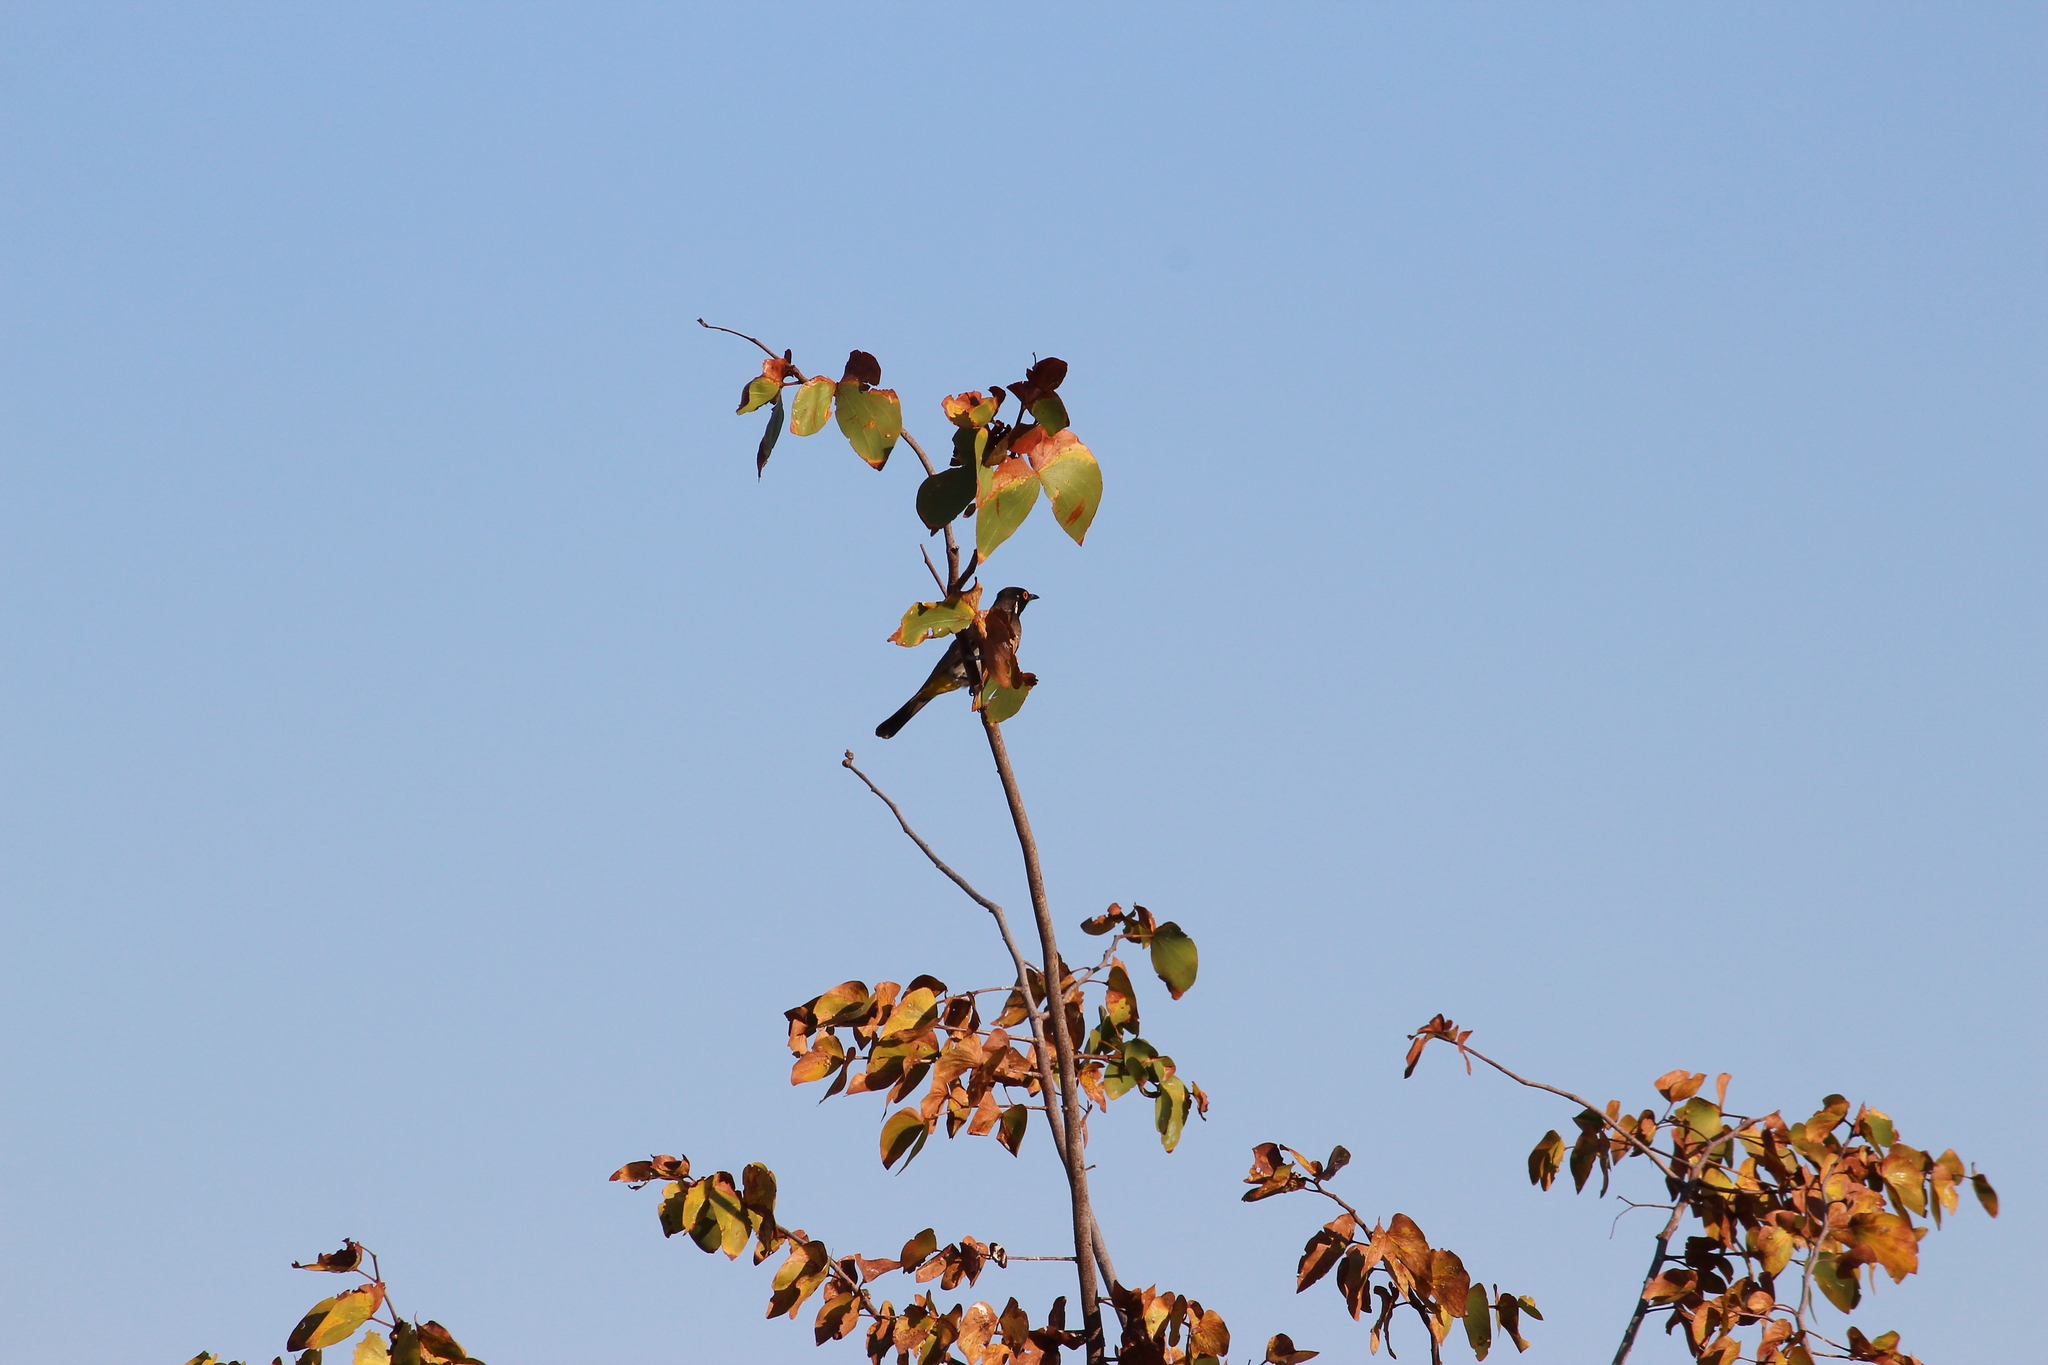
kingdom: Animalia
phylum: Chordata
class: Aves
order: Passeriformes
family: Pycnonotidae
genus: Pycnonotus
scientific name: Pycnonotus nigricans
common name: African red-eyed bulbul
